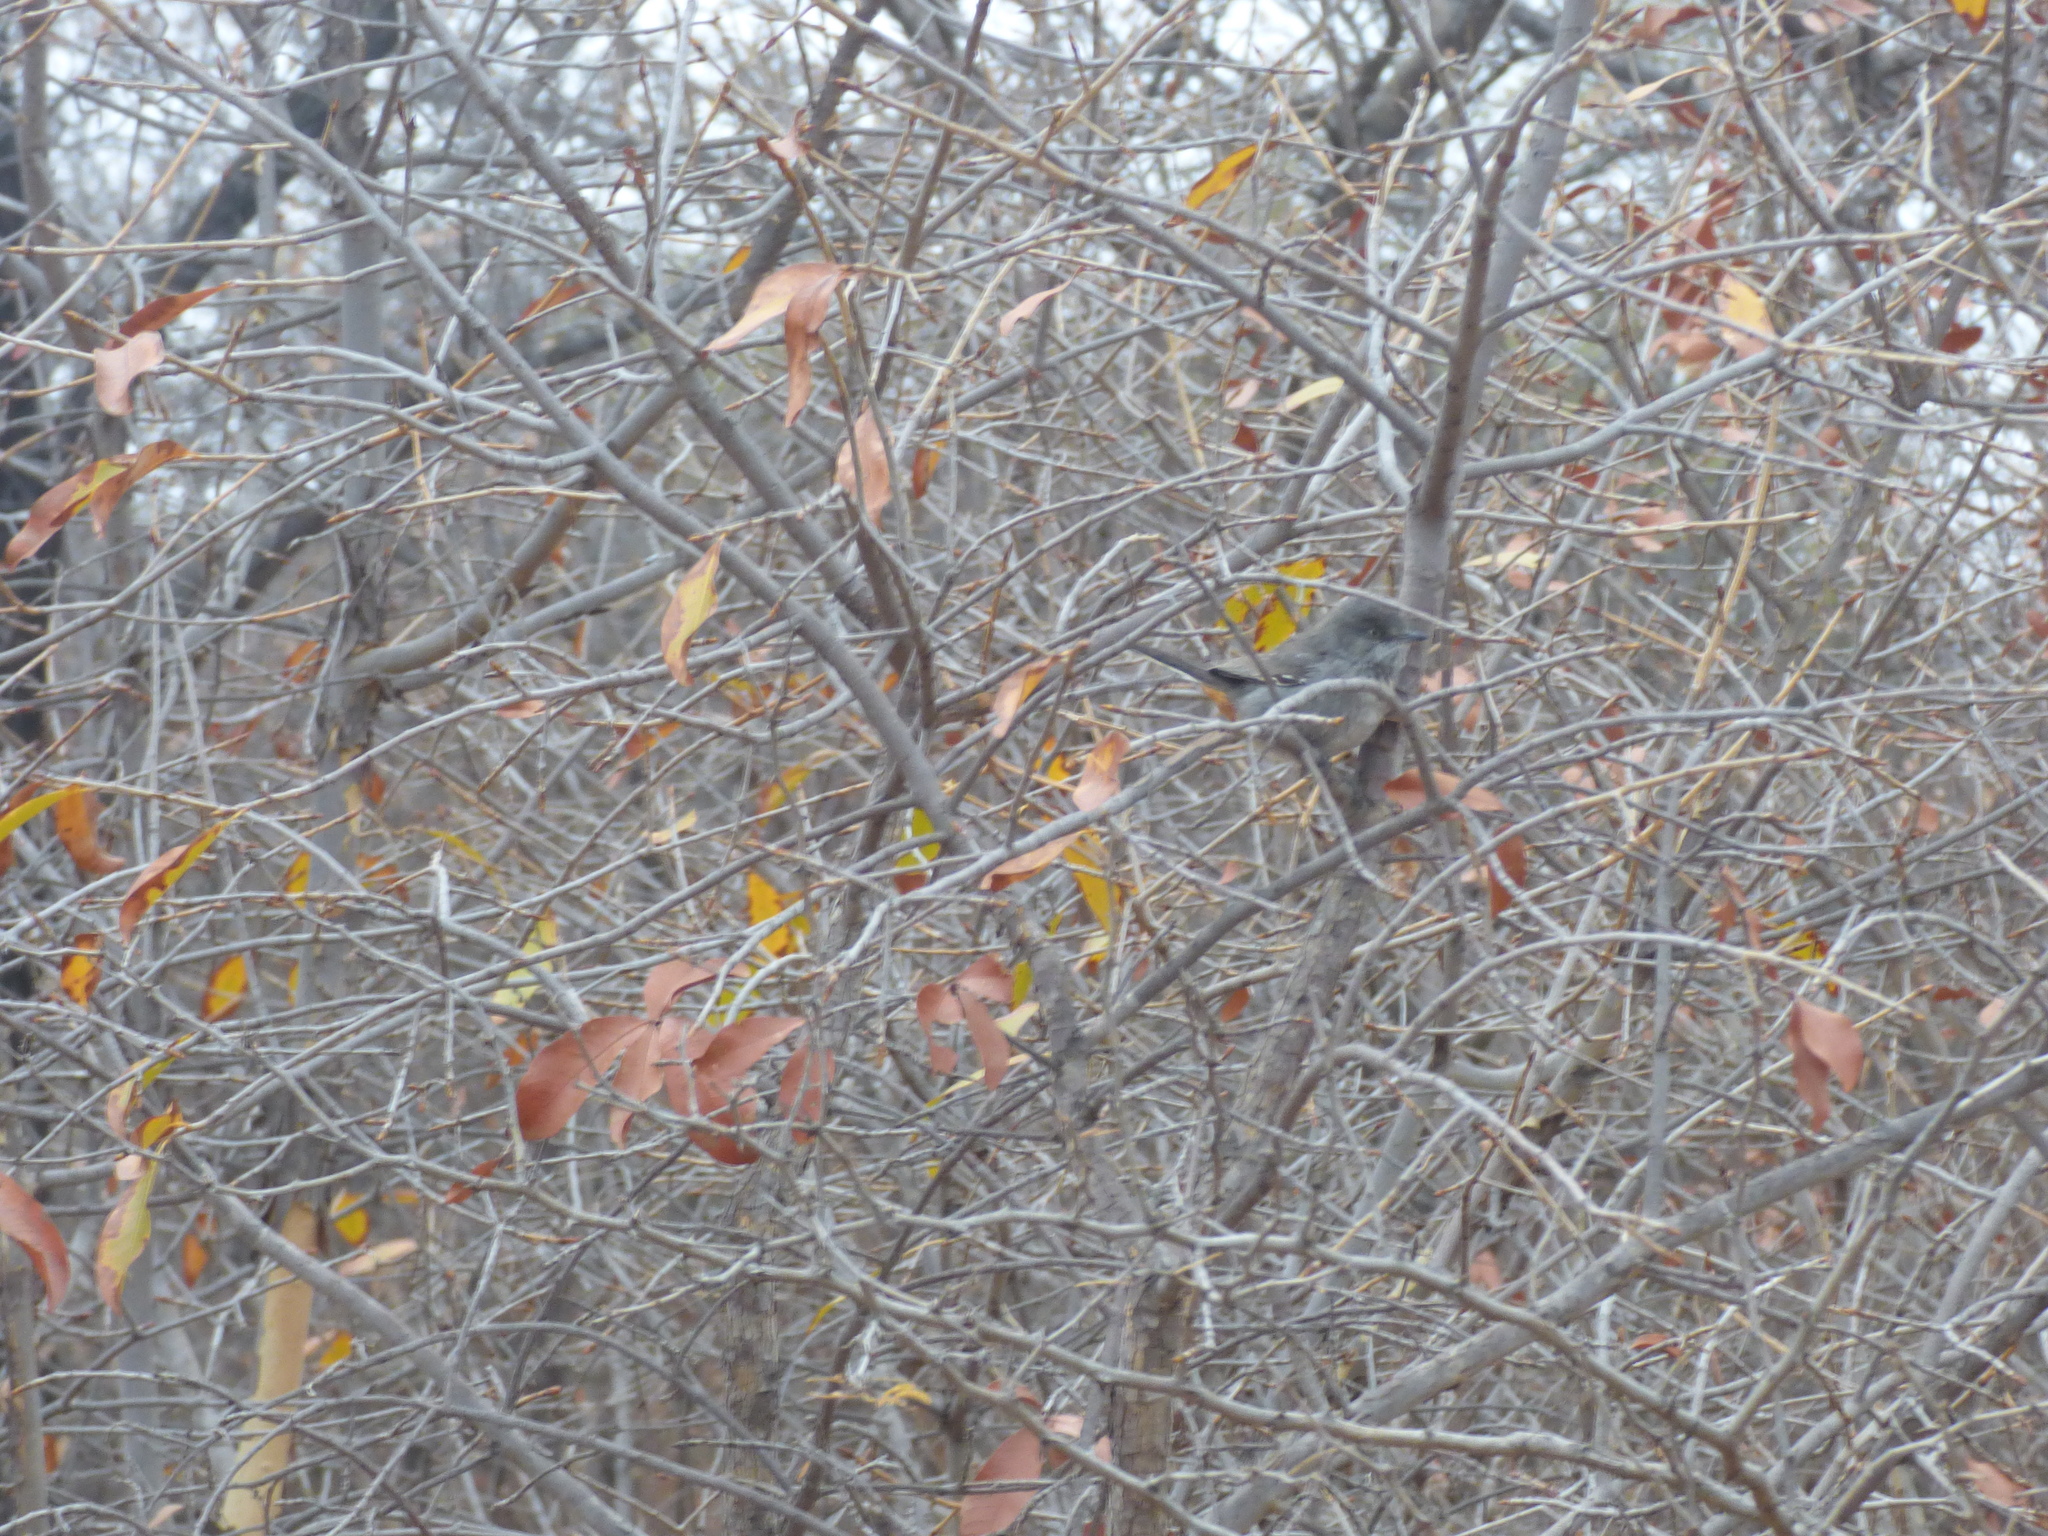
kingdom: Animalia
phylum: Chordata
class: Aves
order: Passeriformes
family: Sylviidae
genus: Curruca
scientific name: Curruca subcoerulea
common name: Chestnut-vented warbler
